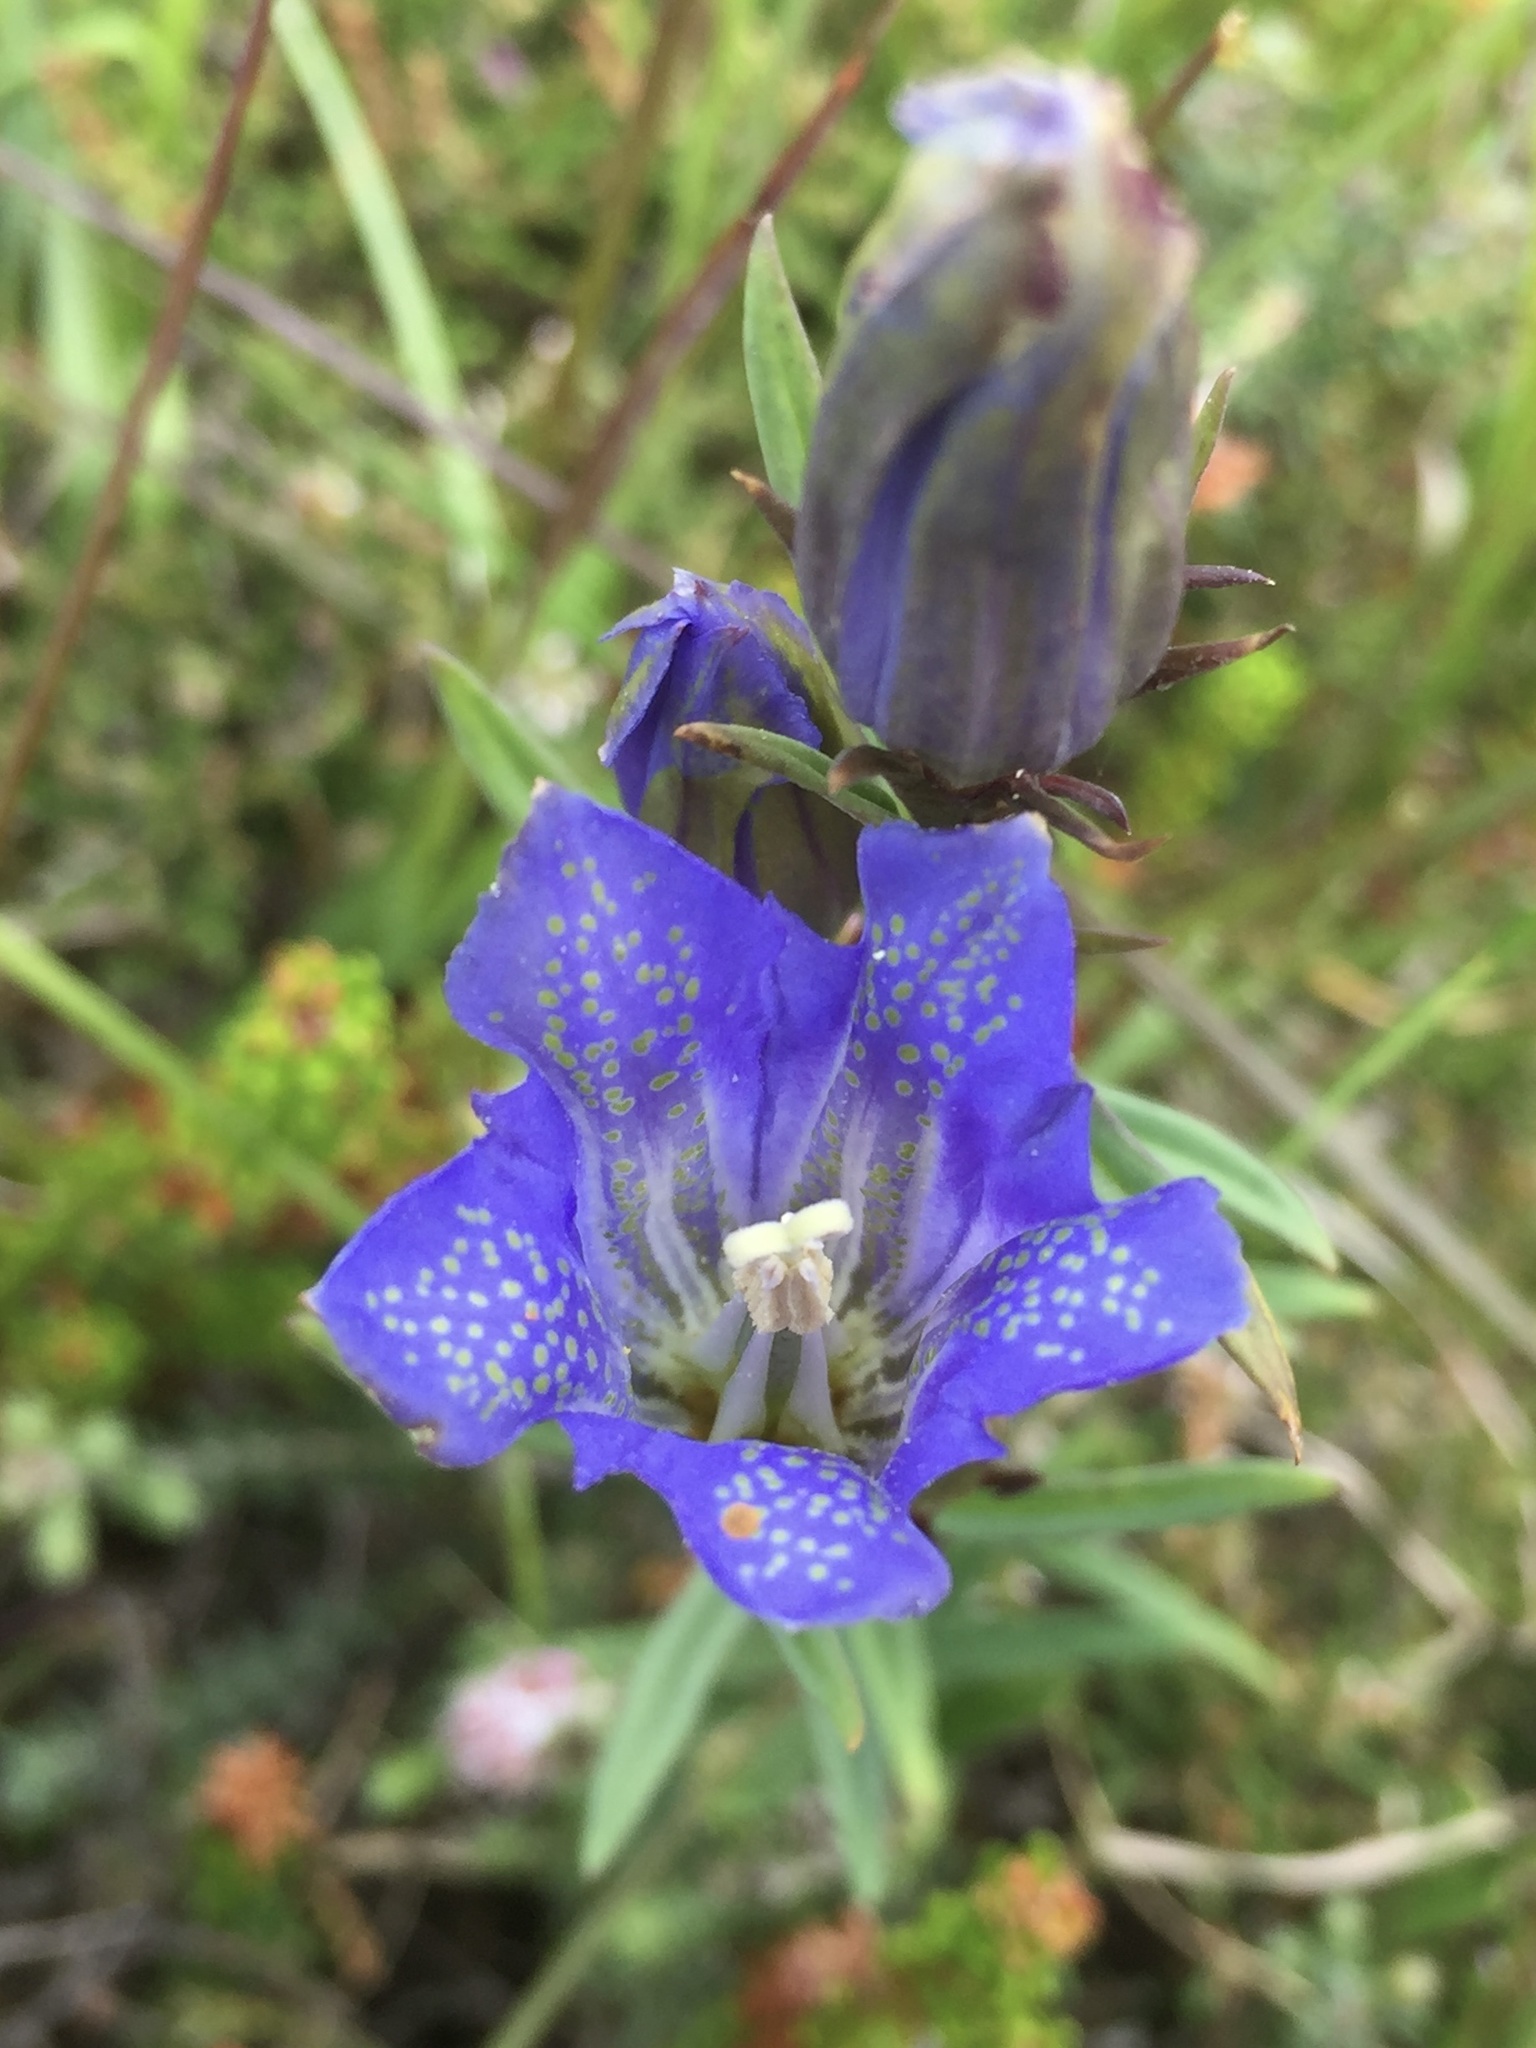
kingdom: Plantae
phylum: Tracheophyta
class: Magnoliopsida
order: Gentianales
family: Gentianaceae
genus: Gentiana
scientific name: Gentiana pneumonanthe
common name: Marsh gentian
